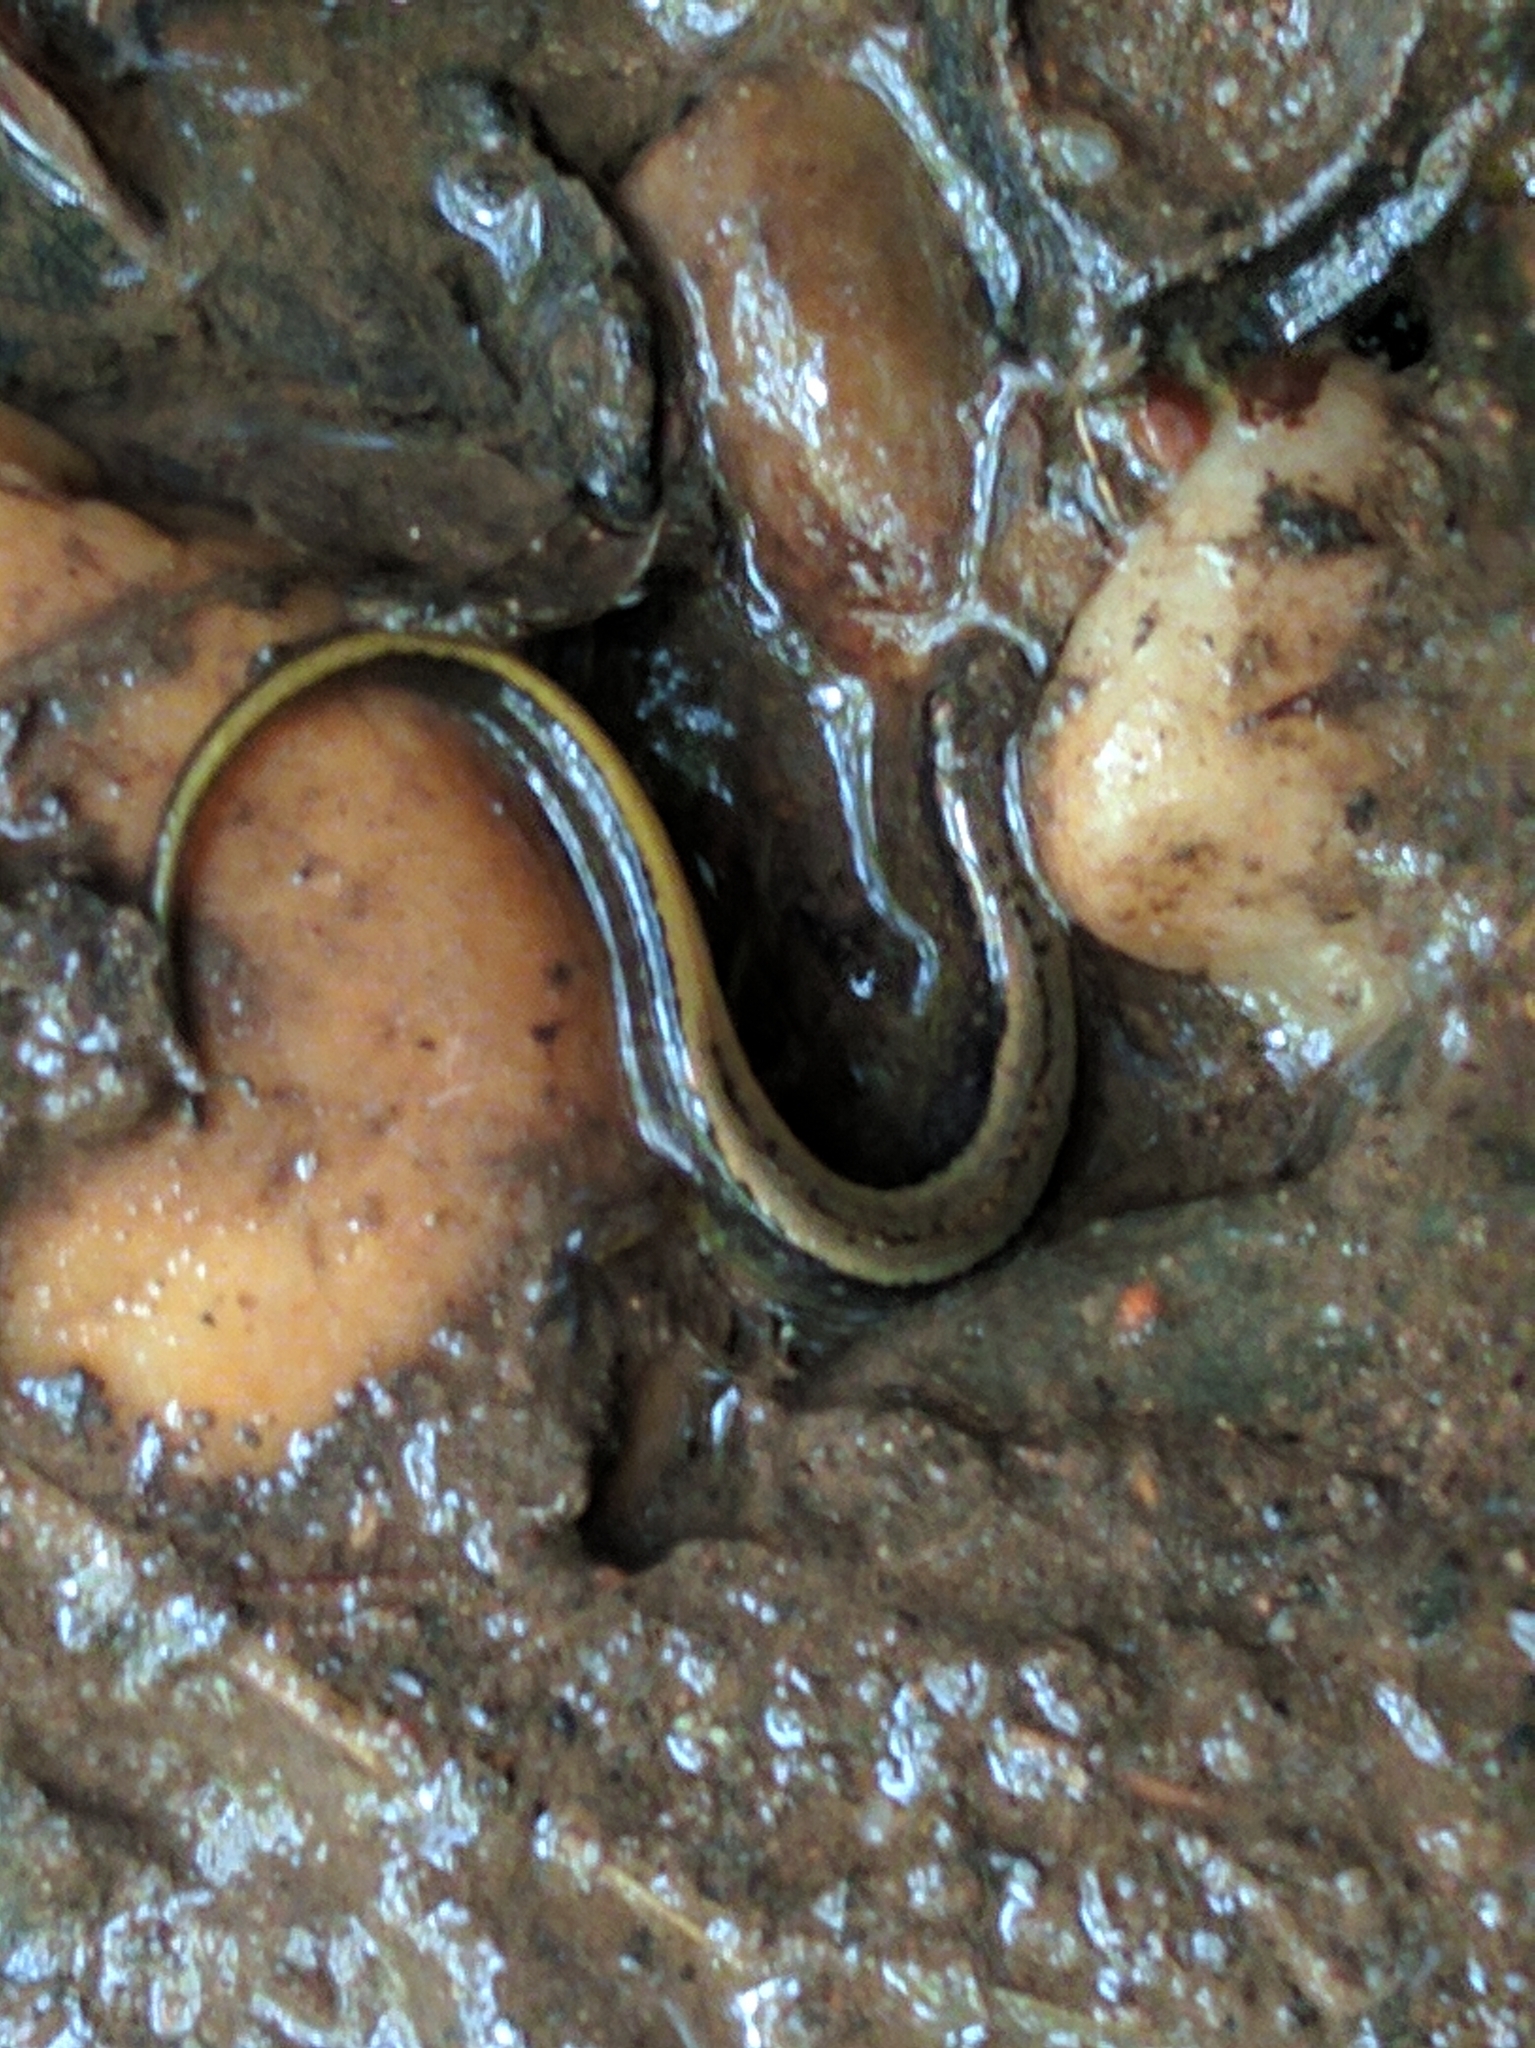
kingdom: Animalia
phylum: Chordata
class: Amphibia
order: Caudata
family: Plethodontidae
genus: Eurycea
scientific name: Eurycea bislineata
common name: Northern two-lined salamander
